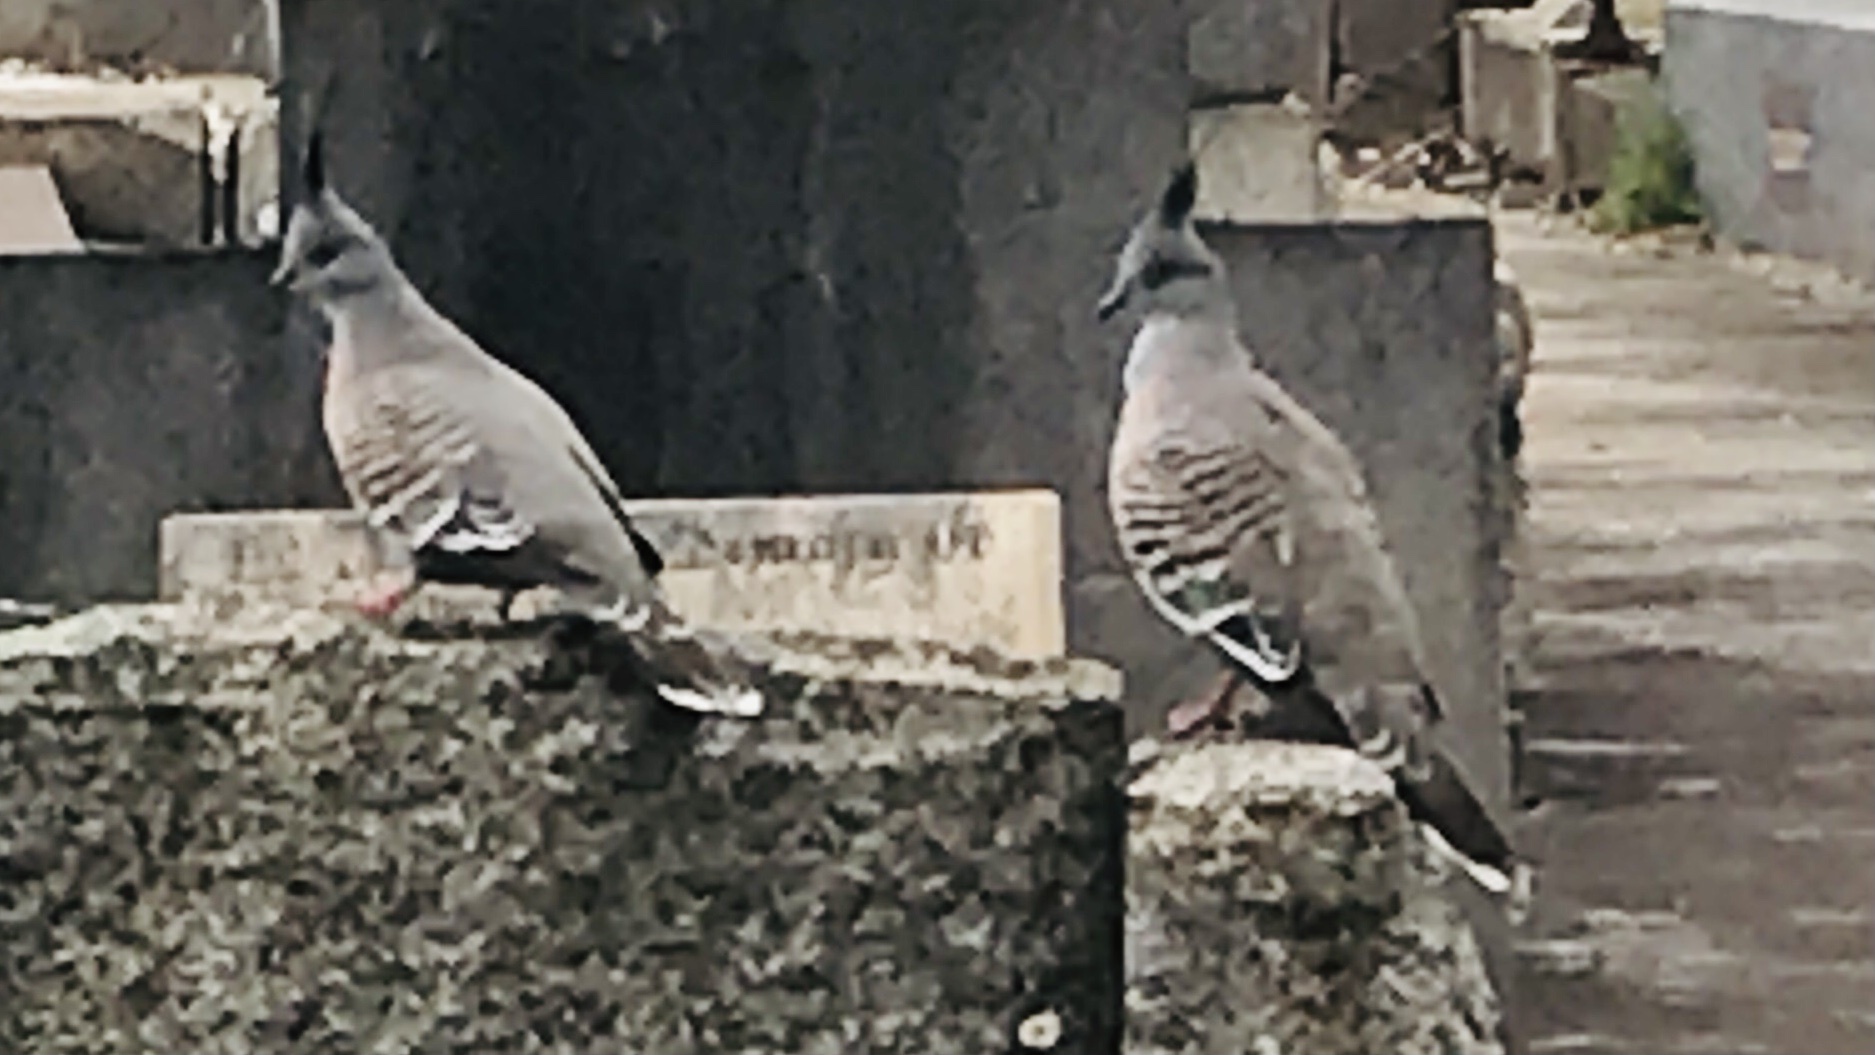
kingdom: Animalia
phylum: Chordata
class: Aves
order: Columbiformes
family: Columbidae
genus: Ocyphaps
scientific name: Ocyphaps lophotes
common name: Crested pigeon
